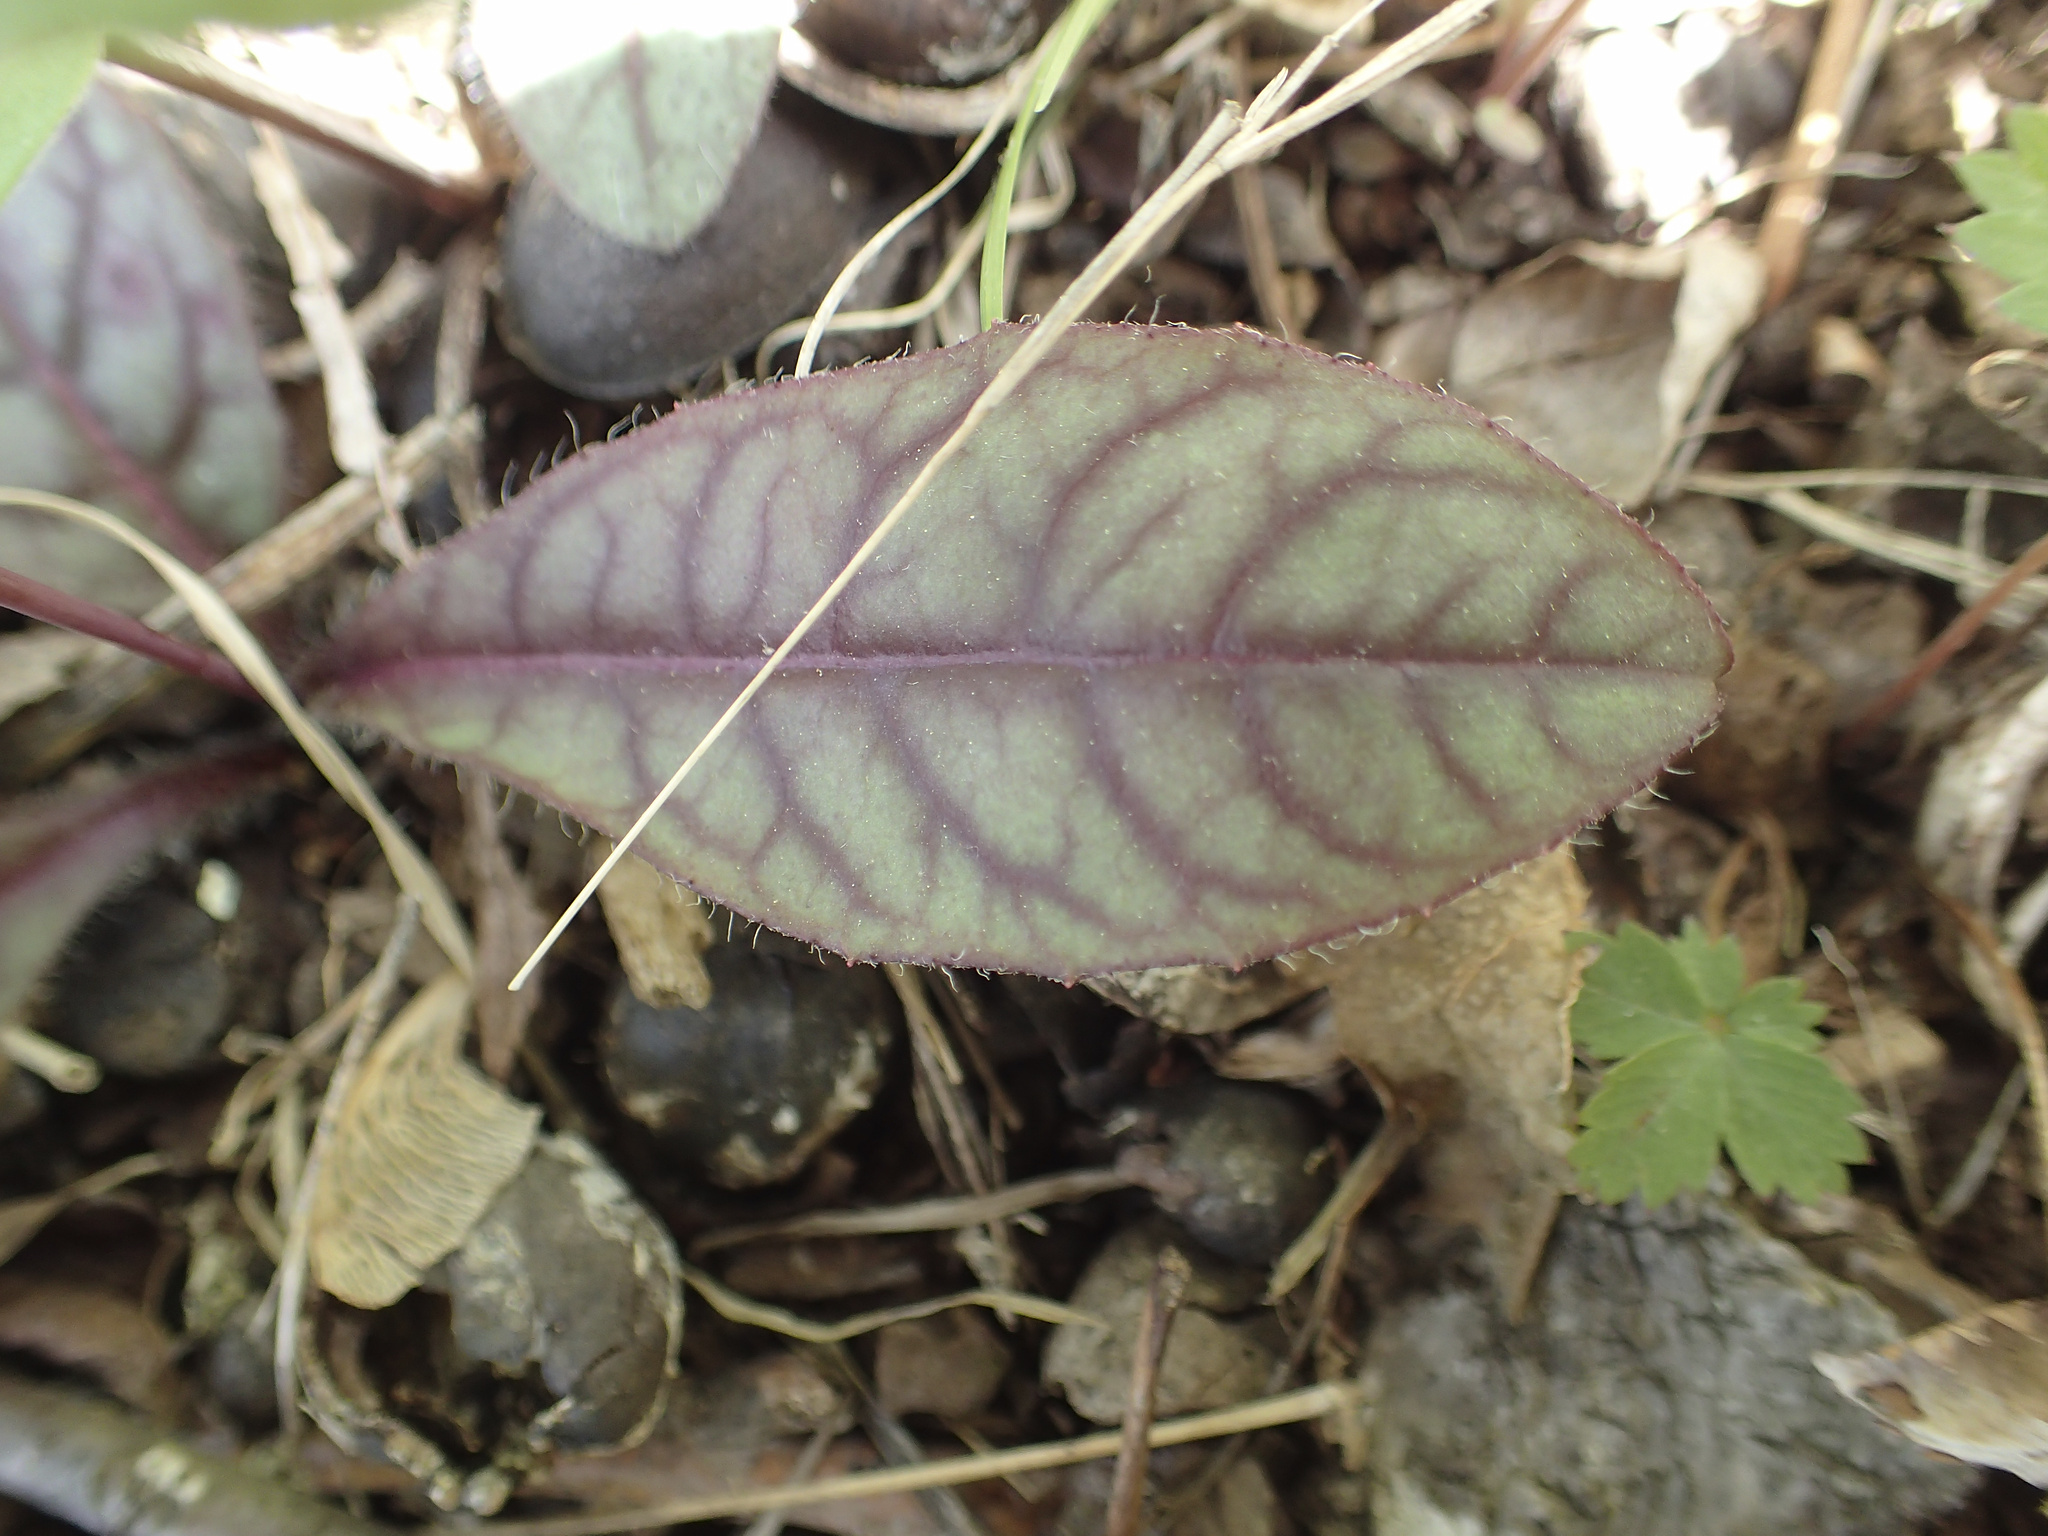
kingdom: Plantae
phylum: Tracheophyta
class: Magnoliopsida
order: Asterales
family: Asteraceae
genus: Hieracium
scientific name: Hieracium venosum
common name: Rattlesnake hawkweed
